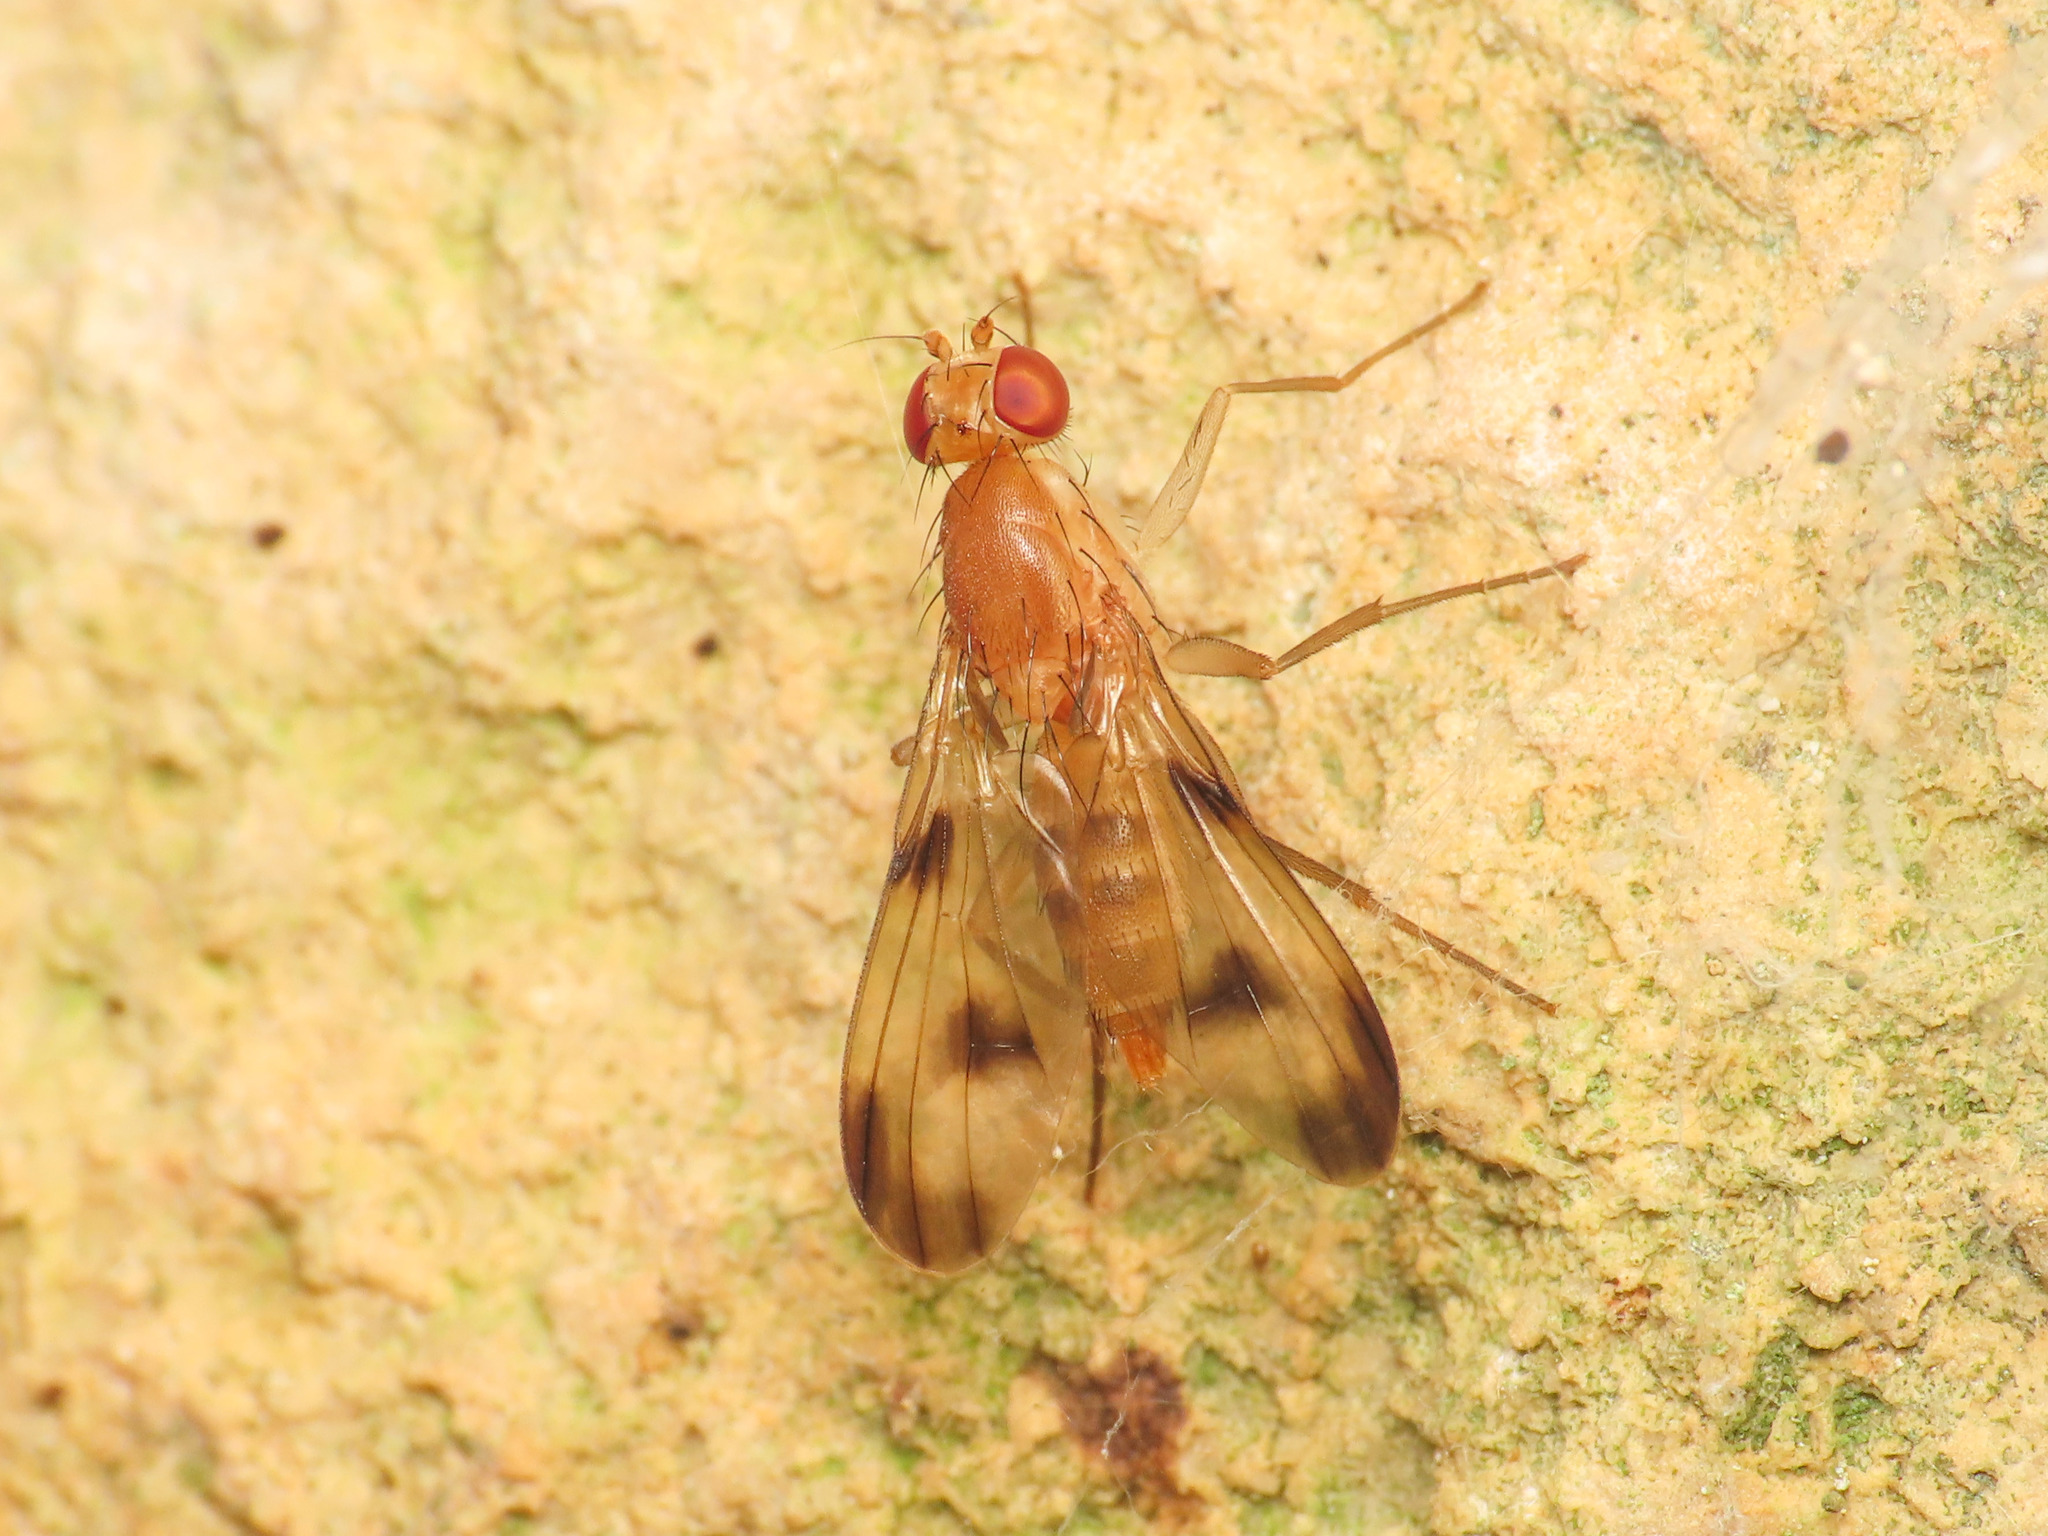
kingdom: Animalia
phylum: Arthropoda
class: Insecta
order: Diptera
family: Clusiidae
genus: Clusia
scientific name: Clusia tigrina
